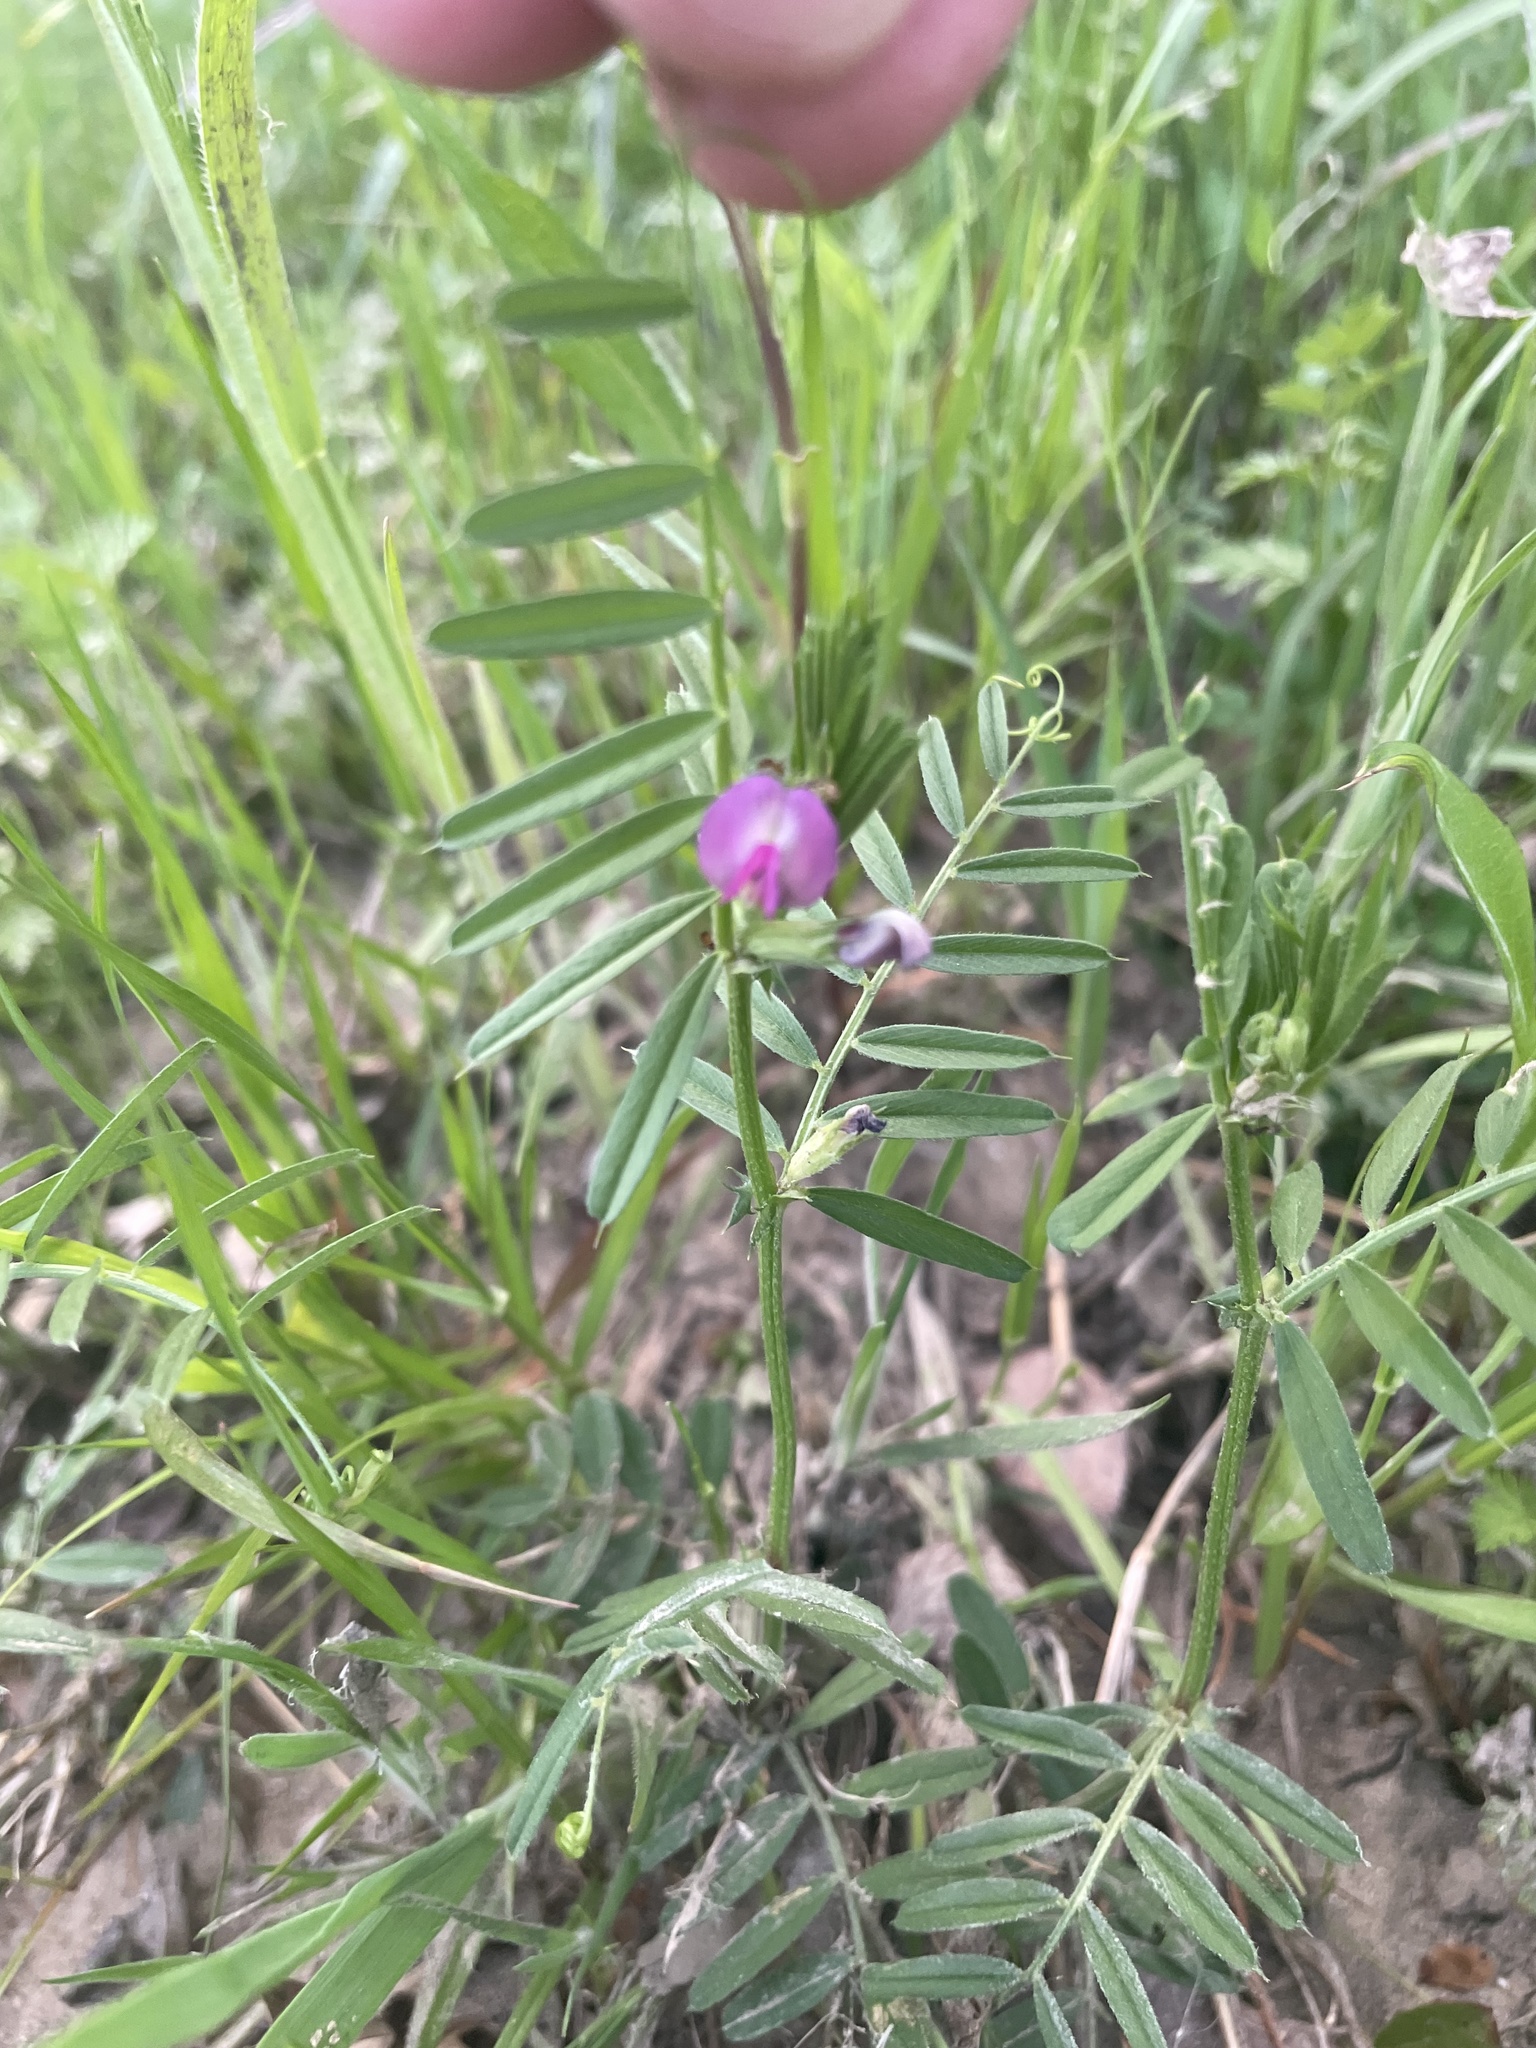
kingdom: Plantae
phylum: Tracheophyta
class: Magnoliopsida
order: Fabales
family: Fabaceae
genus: Vicia
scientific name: Vicia sativa
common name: Garden vetch
